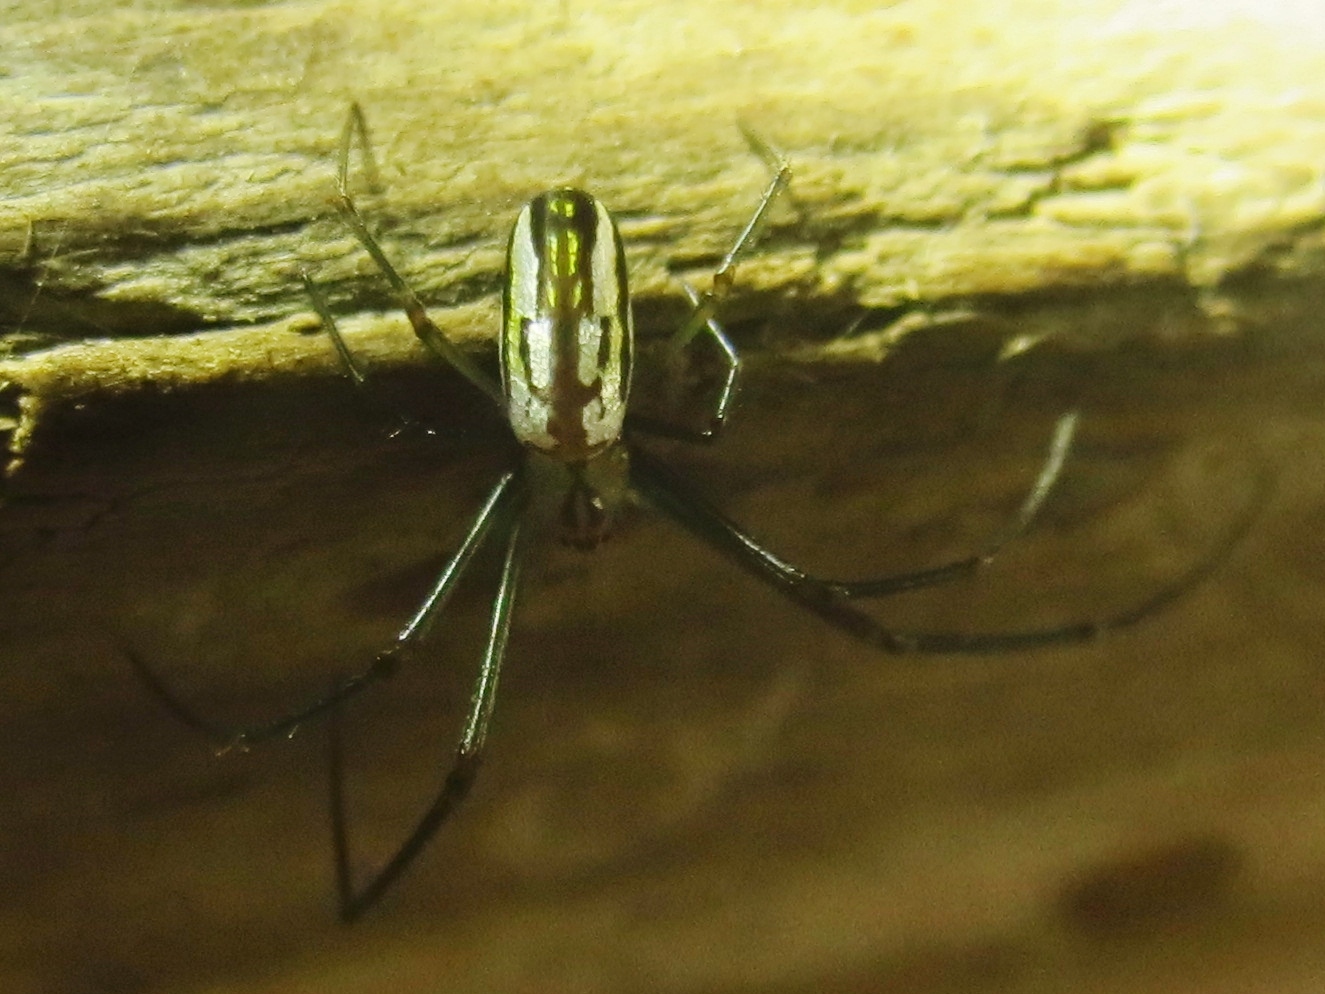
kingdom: Animalia
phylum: Arthropoda
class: Arachnida
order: Araneae
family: Tetragnathidae
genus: Leucauge
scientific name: Leucauge argyra
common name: Longjawed orb weavers
